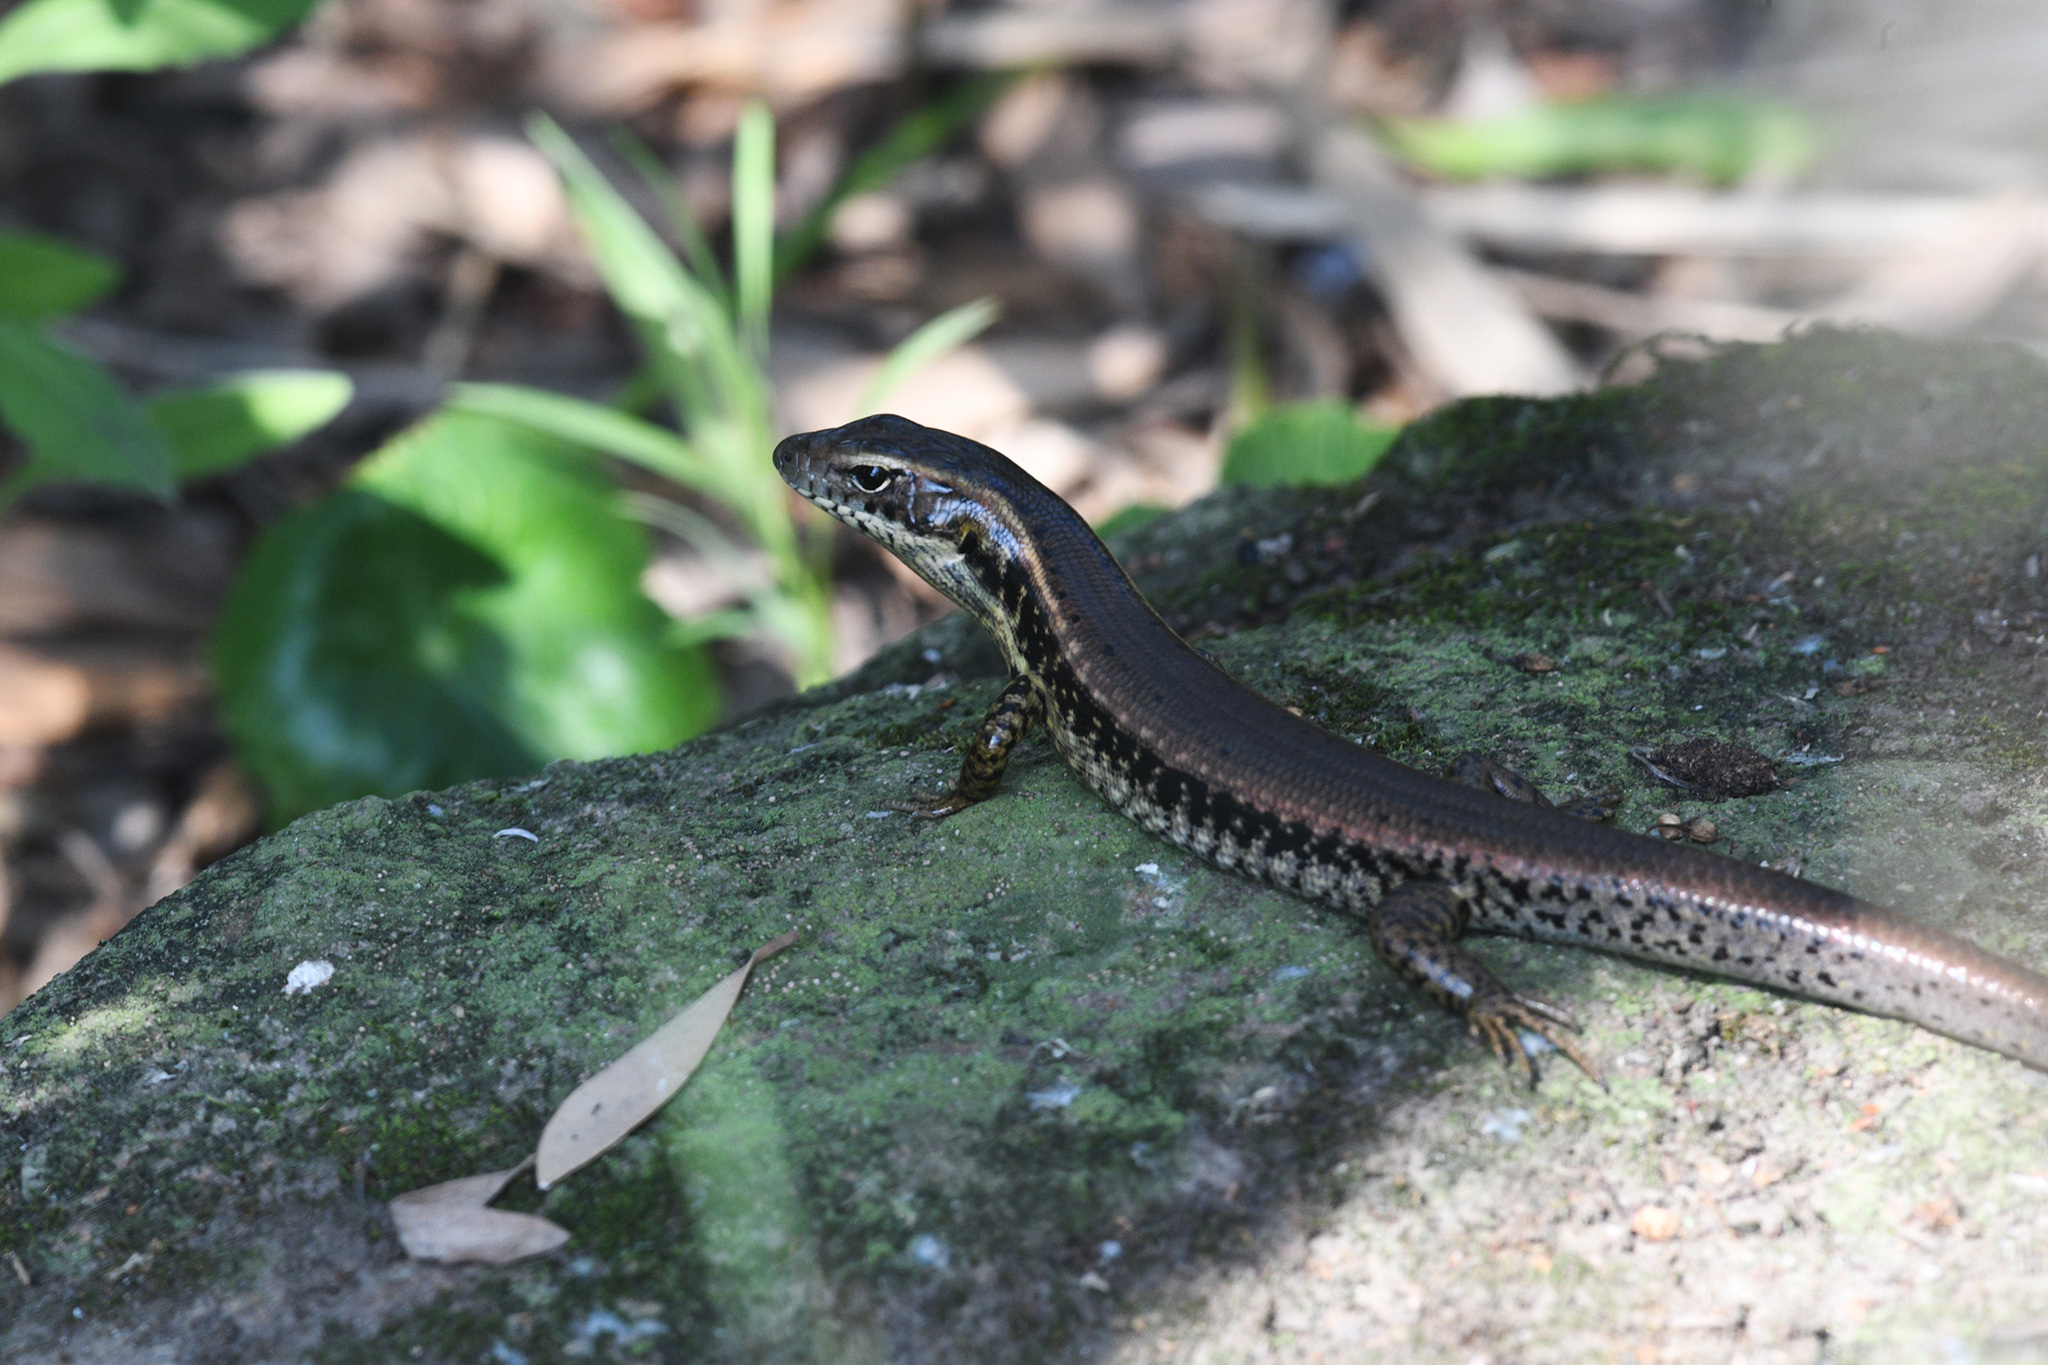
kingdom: Animalia
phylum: Chordata
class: Squamata
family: Scincidae
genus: Eulamprus
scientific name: Eulamprus quoyii
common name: Eastern water skink
